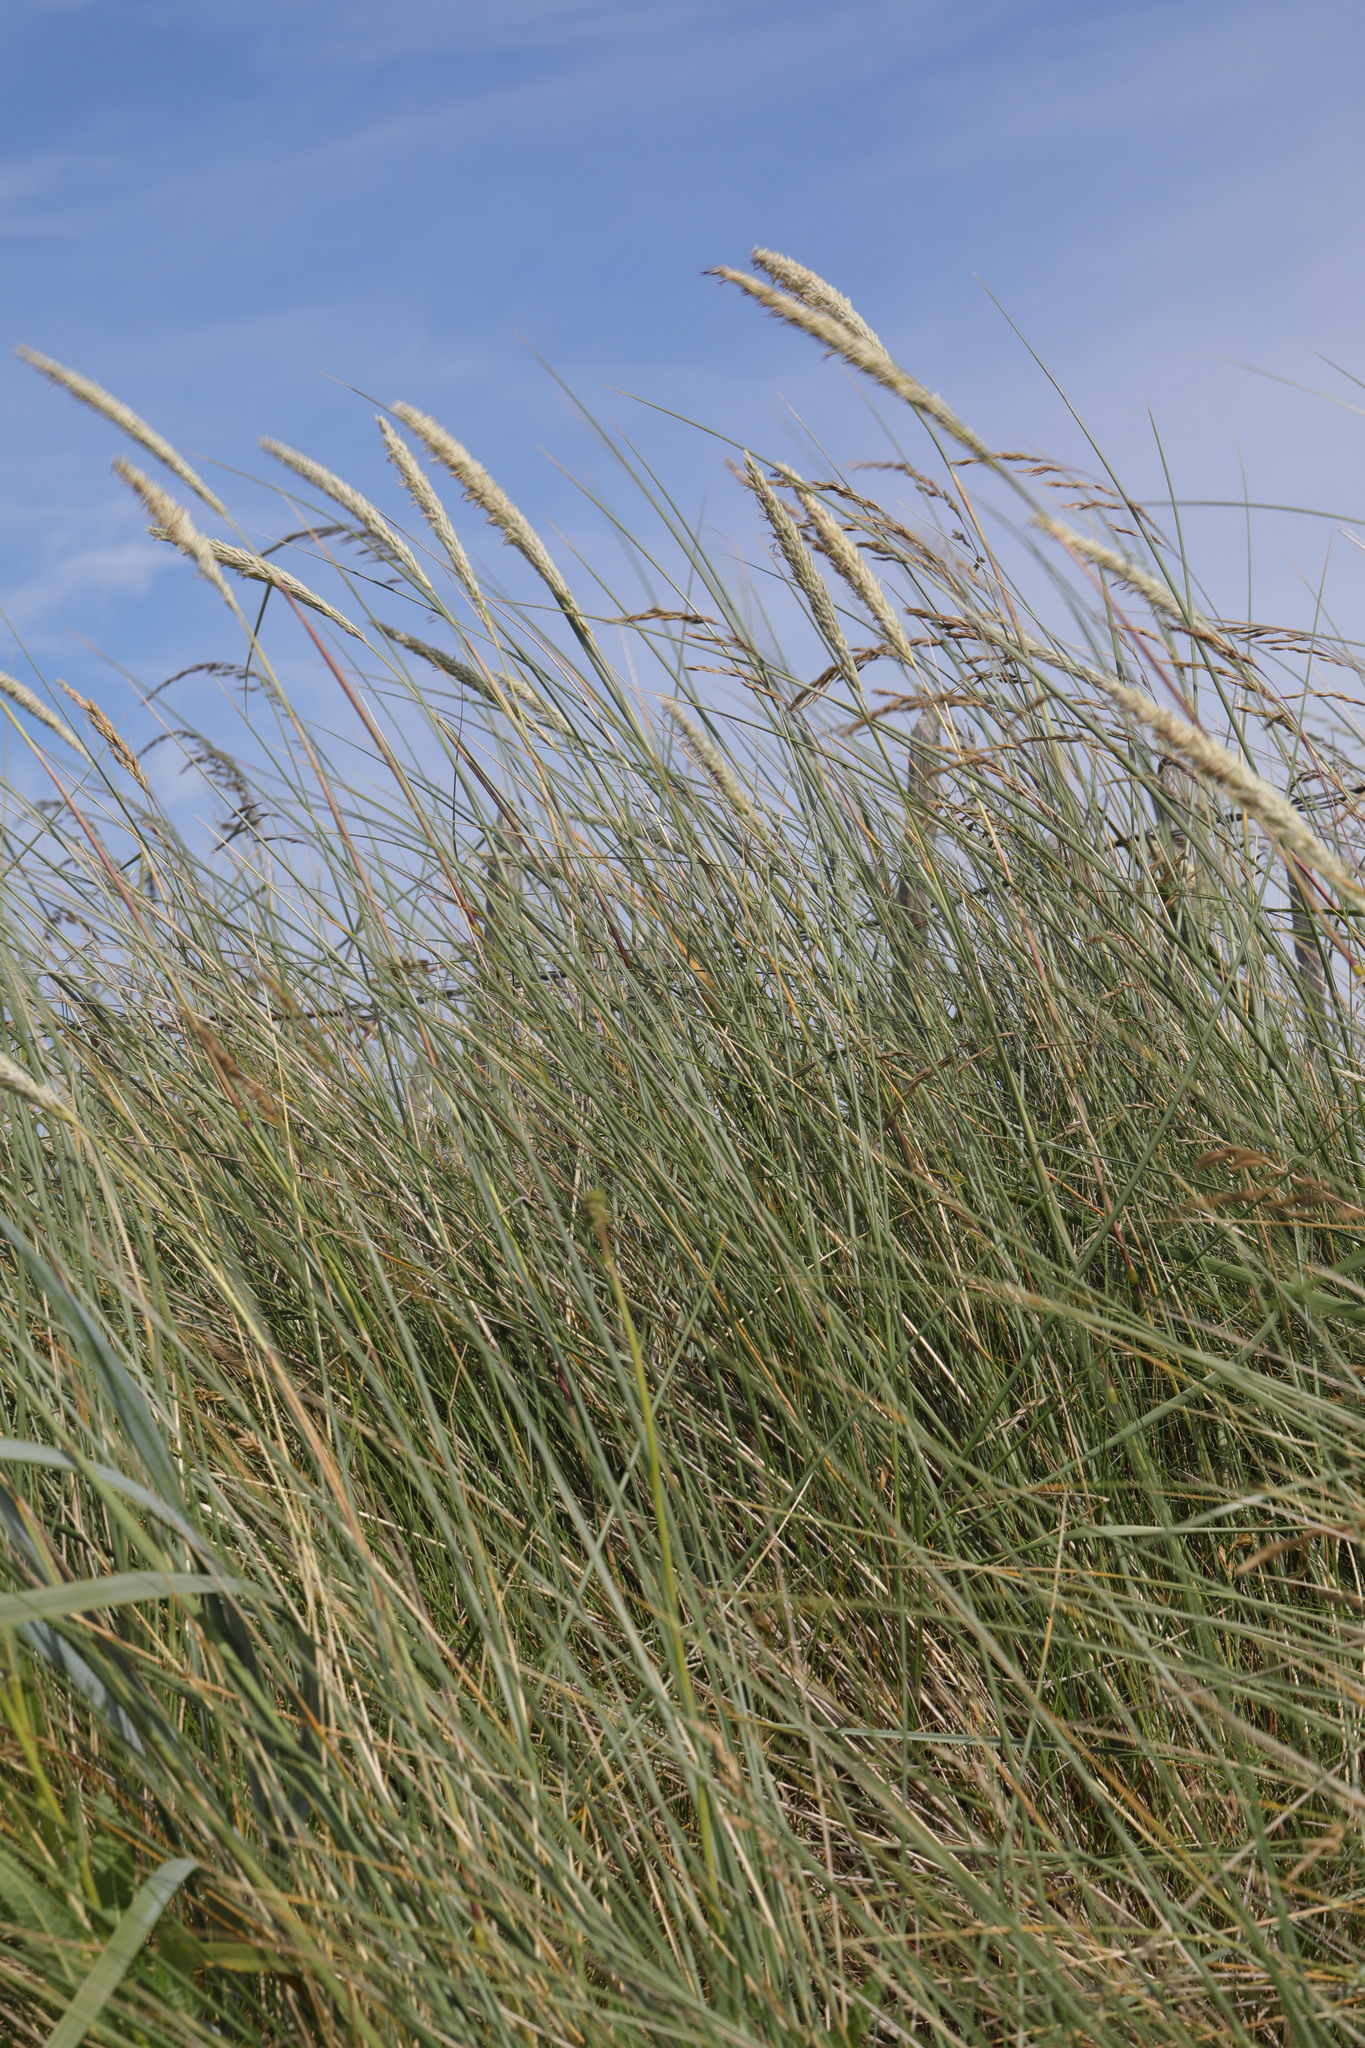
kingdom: Plantae
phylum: Tracheophyta
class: Liliopsida
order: Poales
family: Poaceae
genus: Calamagrostis
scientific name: Calamagrostis arenaria
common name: European beachgrass
